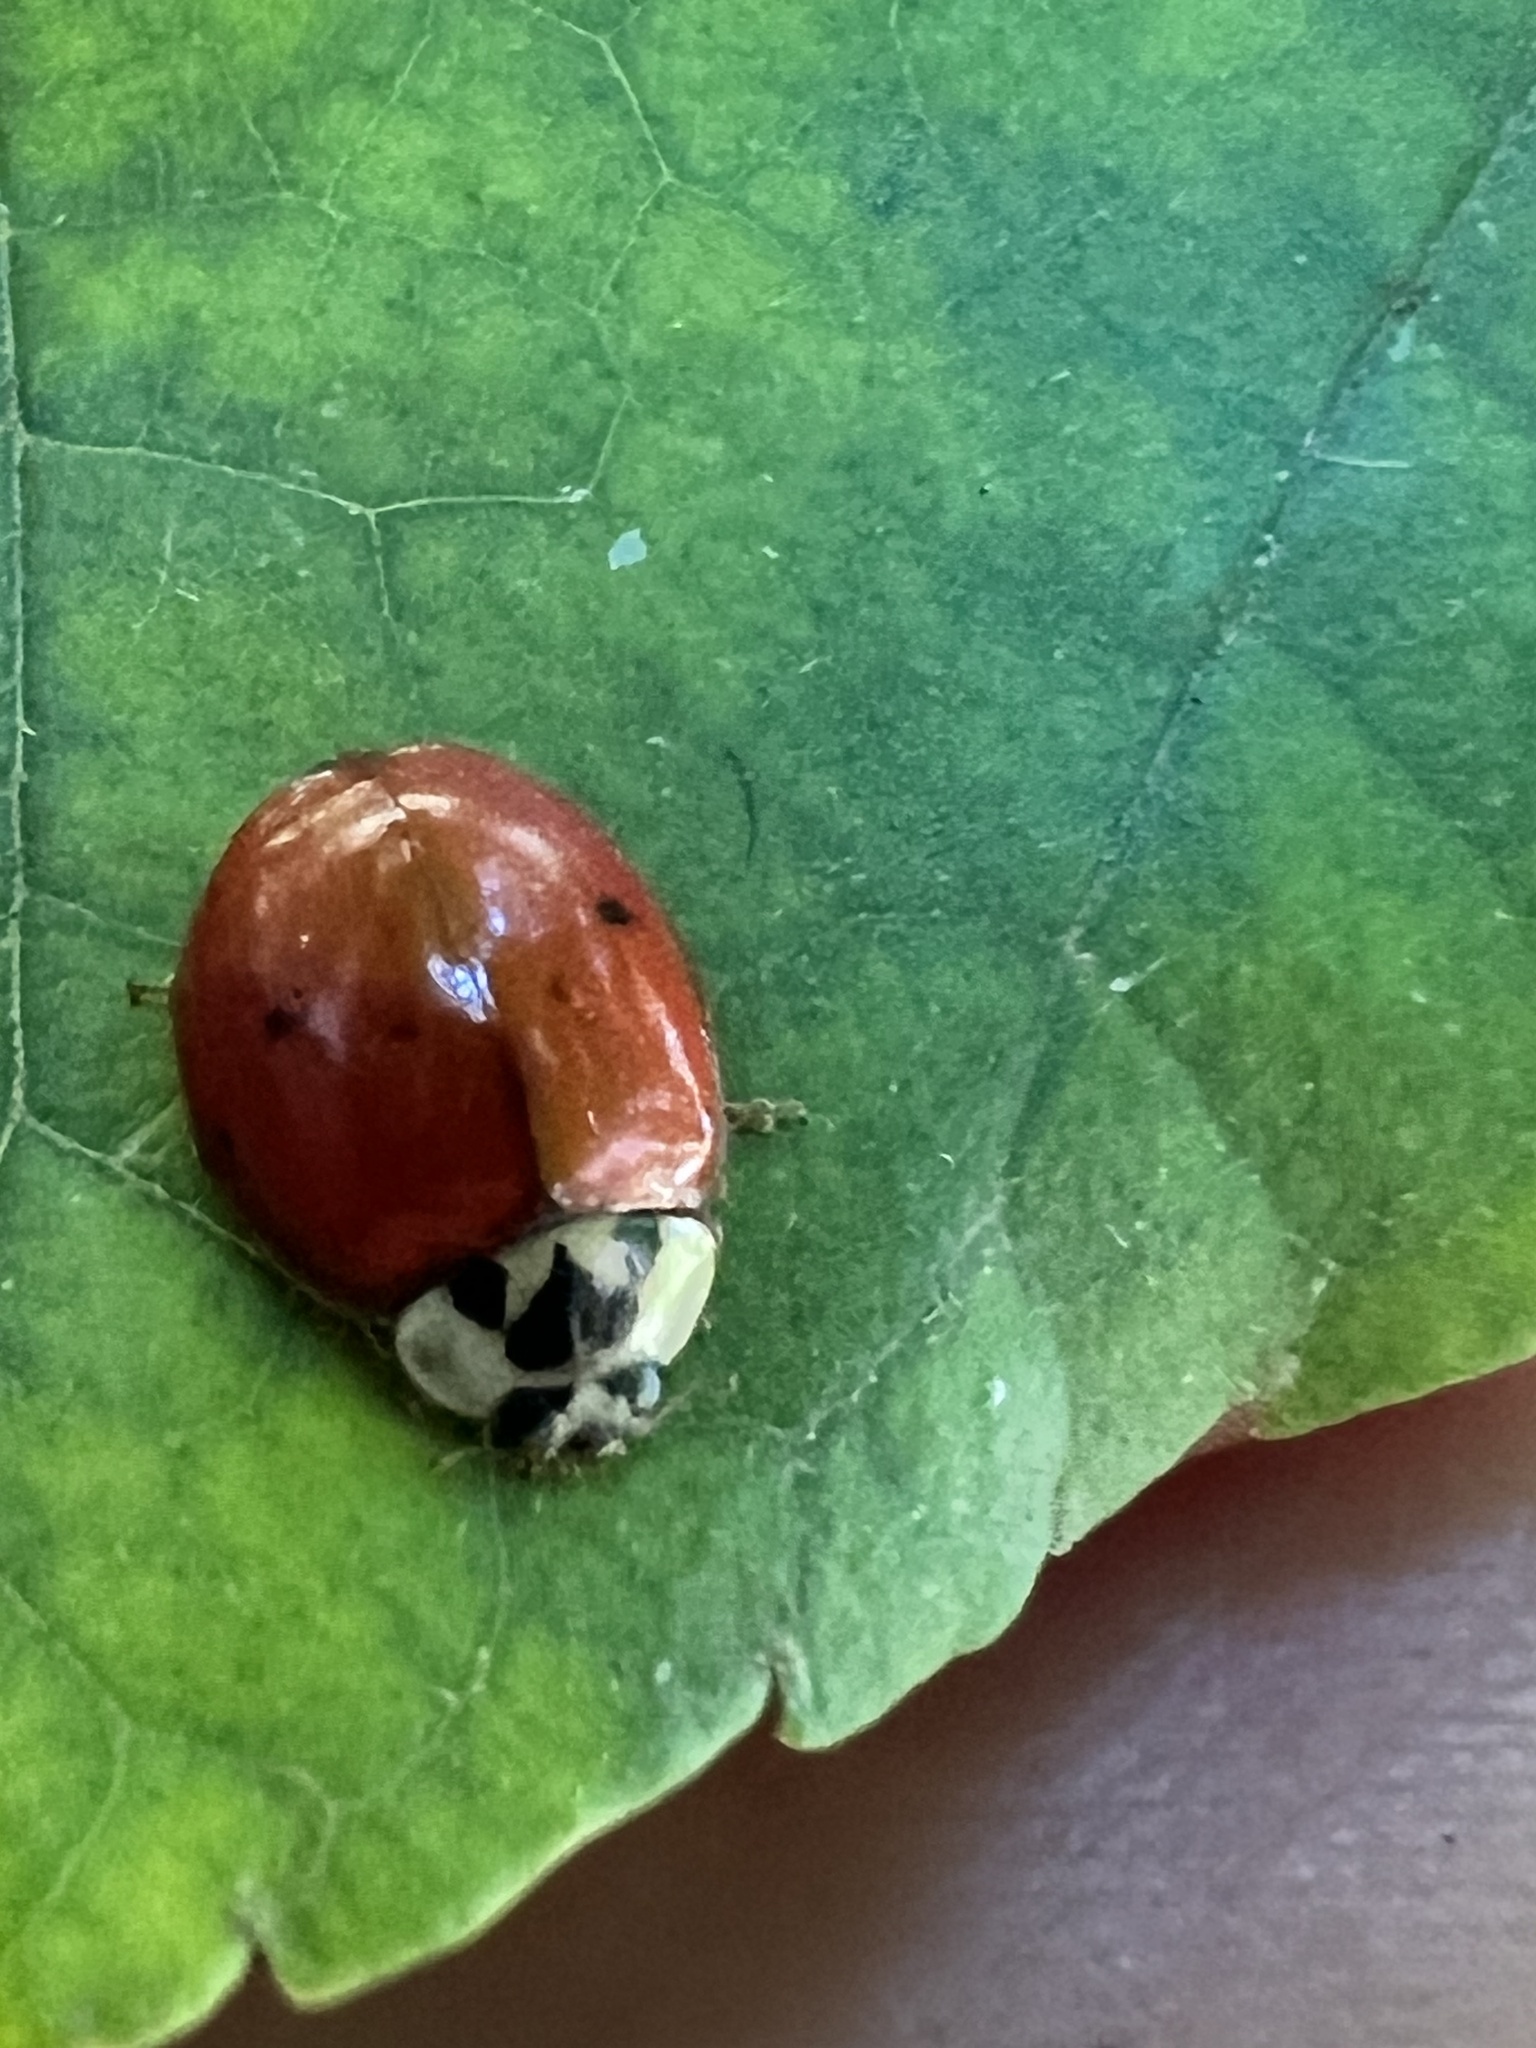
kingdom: Animalia
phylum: Arthropoda
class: Insecta
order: Coleoptera
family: Coccinellidae
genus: Harmonia
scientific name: Harmonia axyridis
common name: Harlequin ladybird
